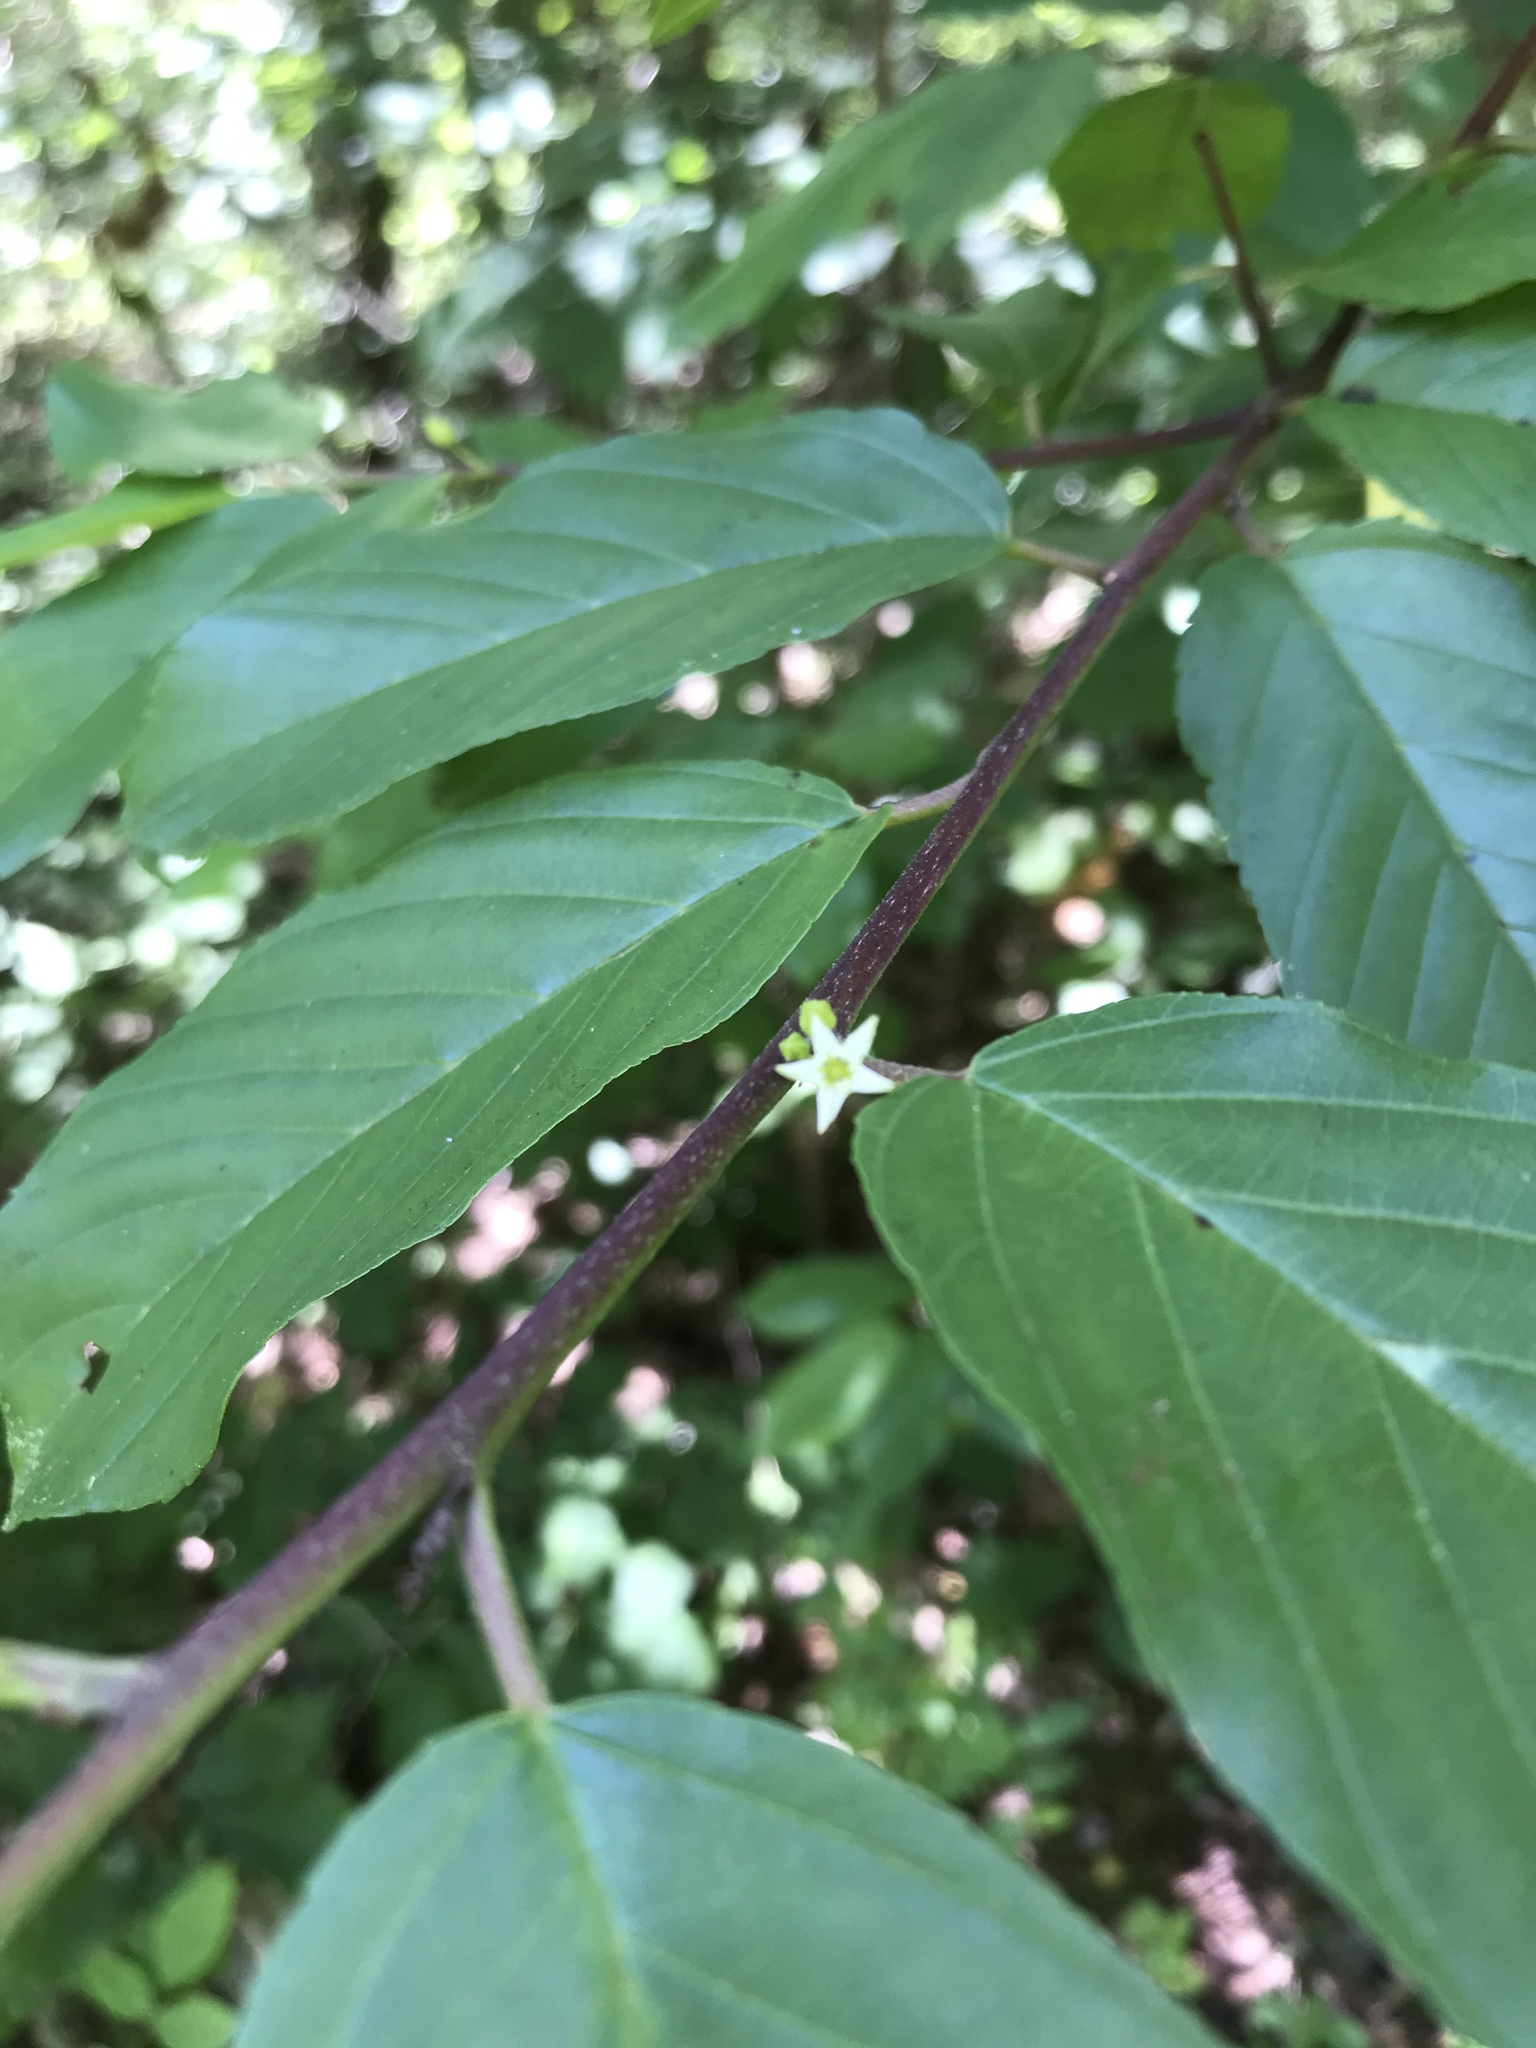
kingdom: Plantae
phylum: Tracheophyta
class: Magnoliopsida
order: Rosales
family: Rhamnaceae
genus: Frangula
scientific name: Frangula caroliniana
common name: Carolina buckthorn
